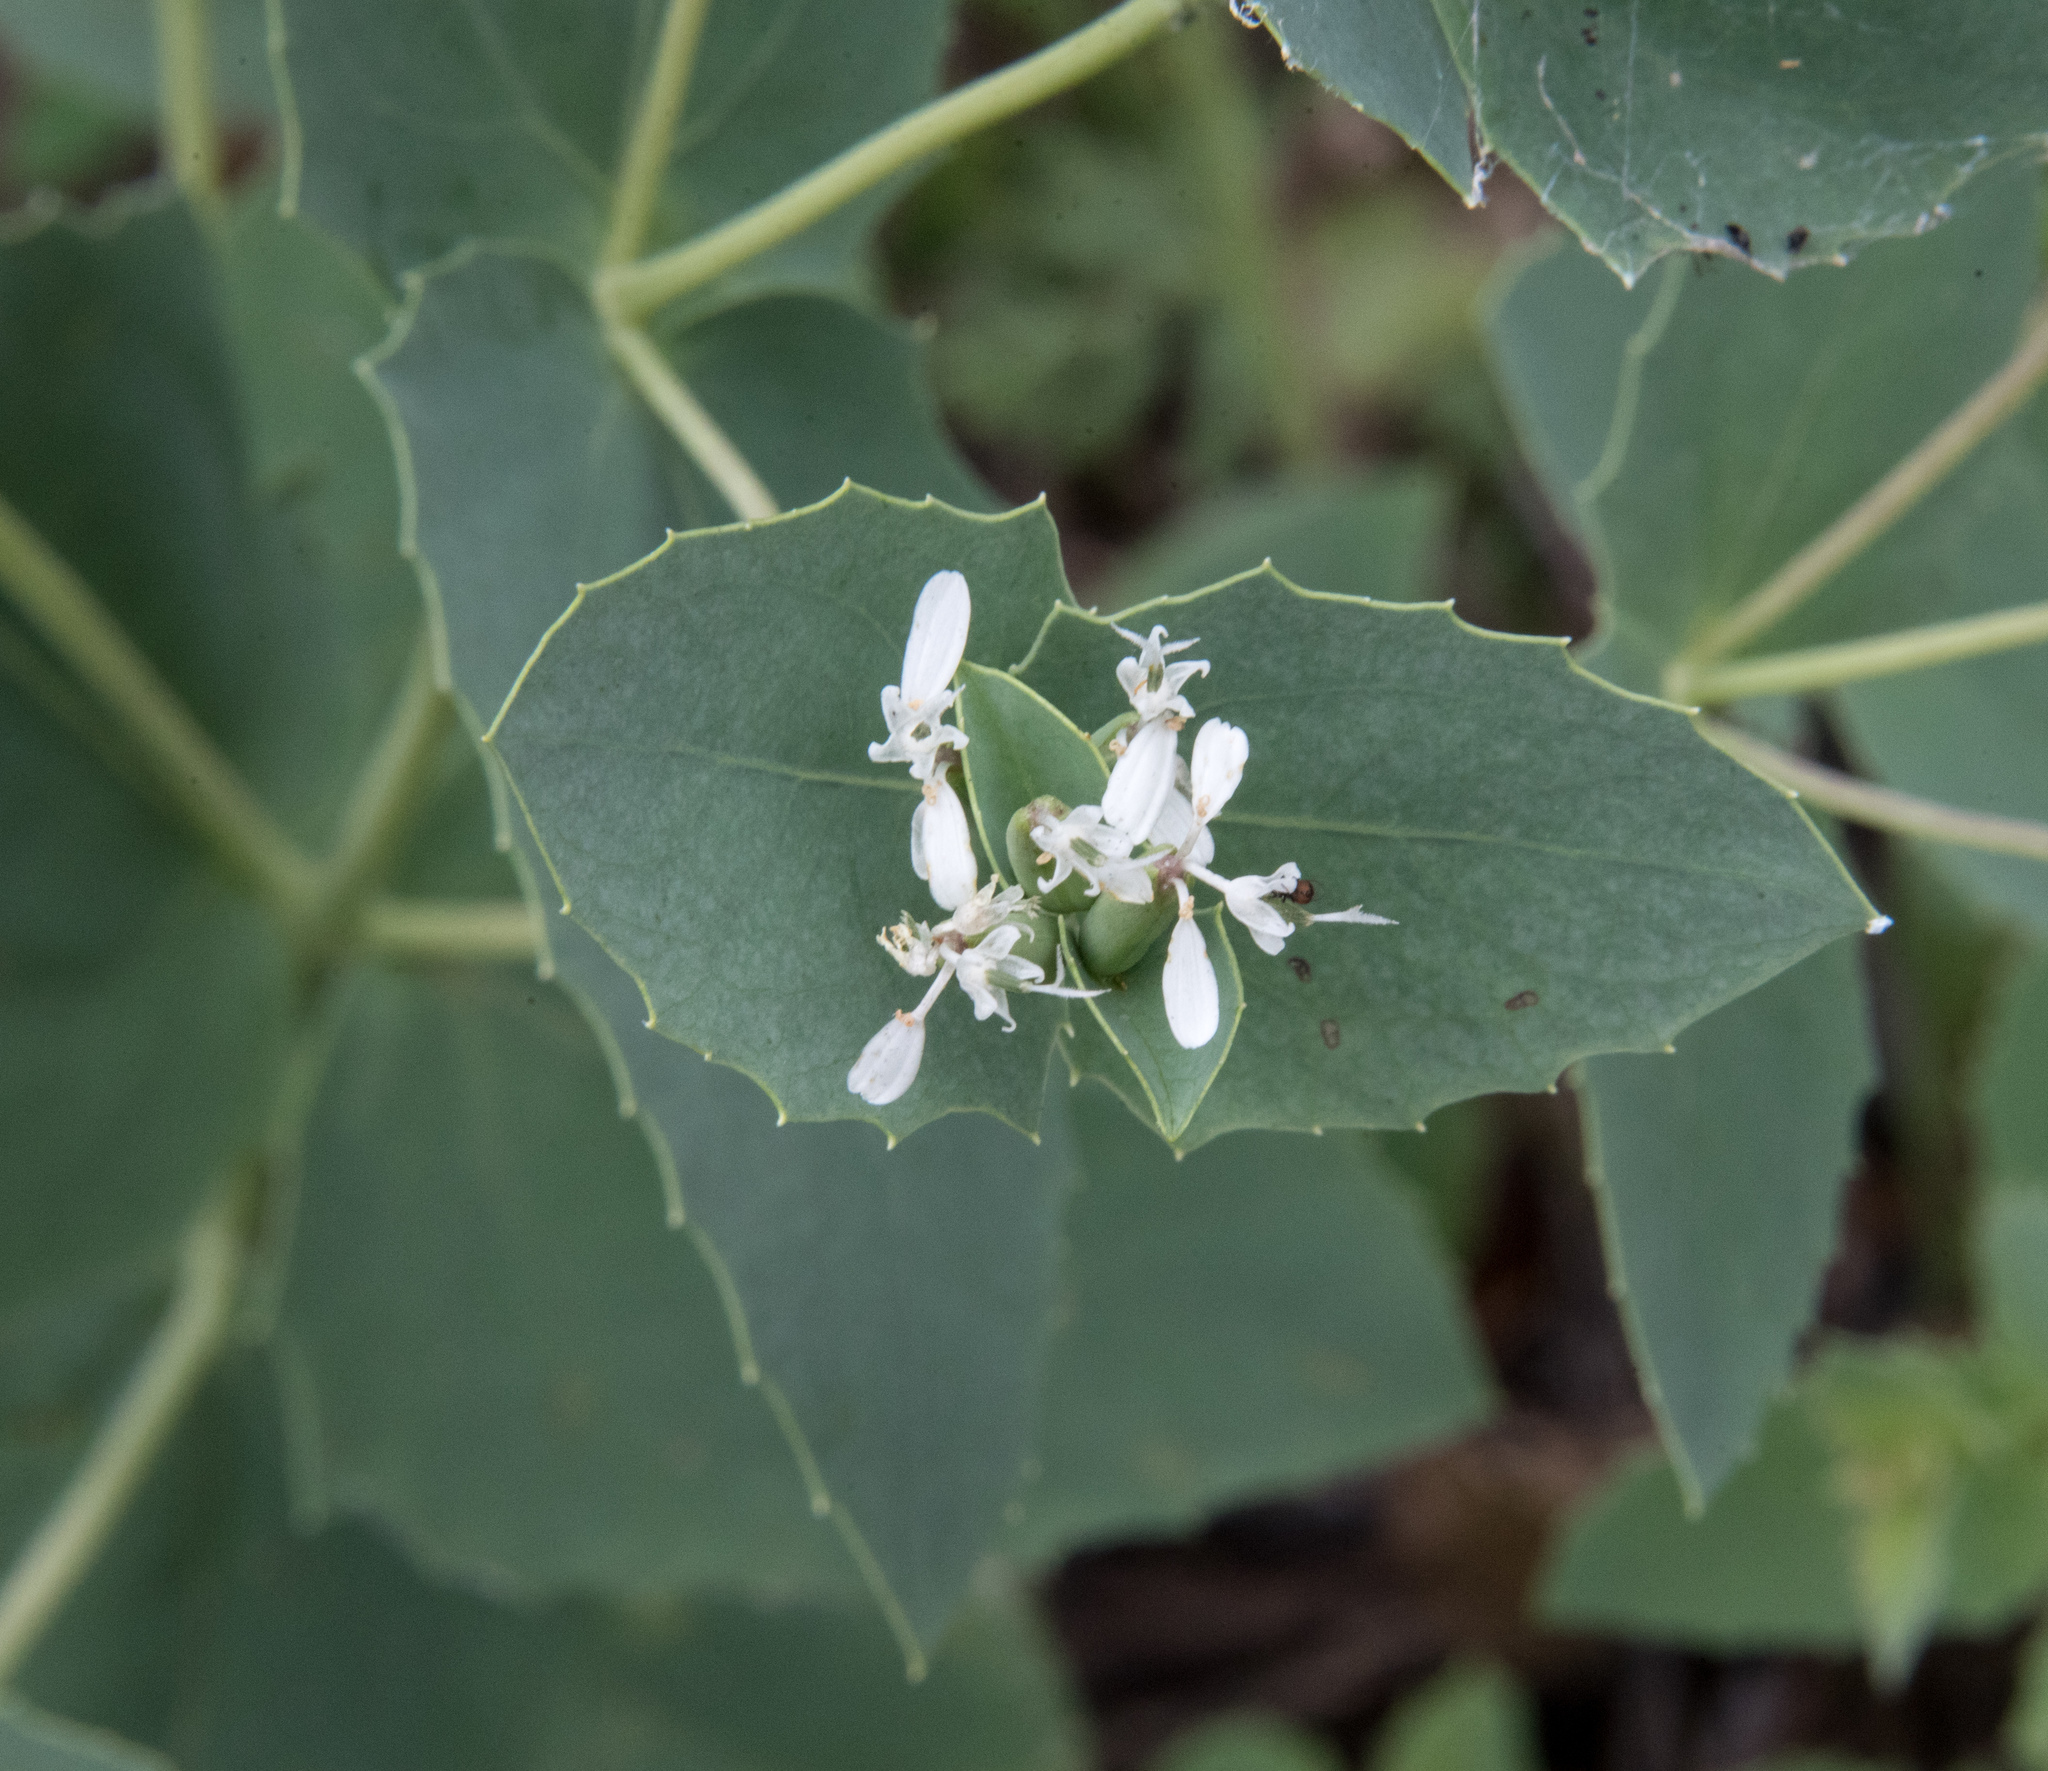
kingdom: Plantae
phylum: Tracheophyta
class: Magnoliopsida
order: Asterales
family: Asteraceae
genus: Guardiola
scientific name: Guardiola platyphylla
